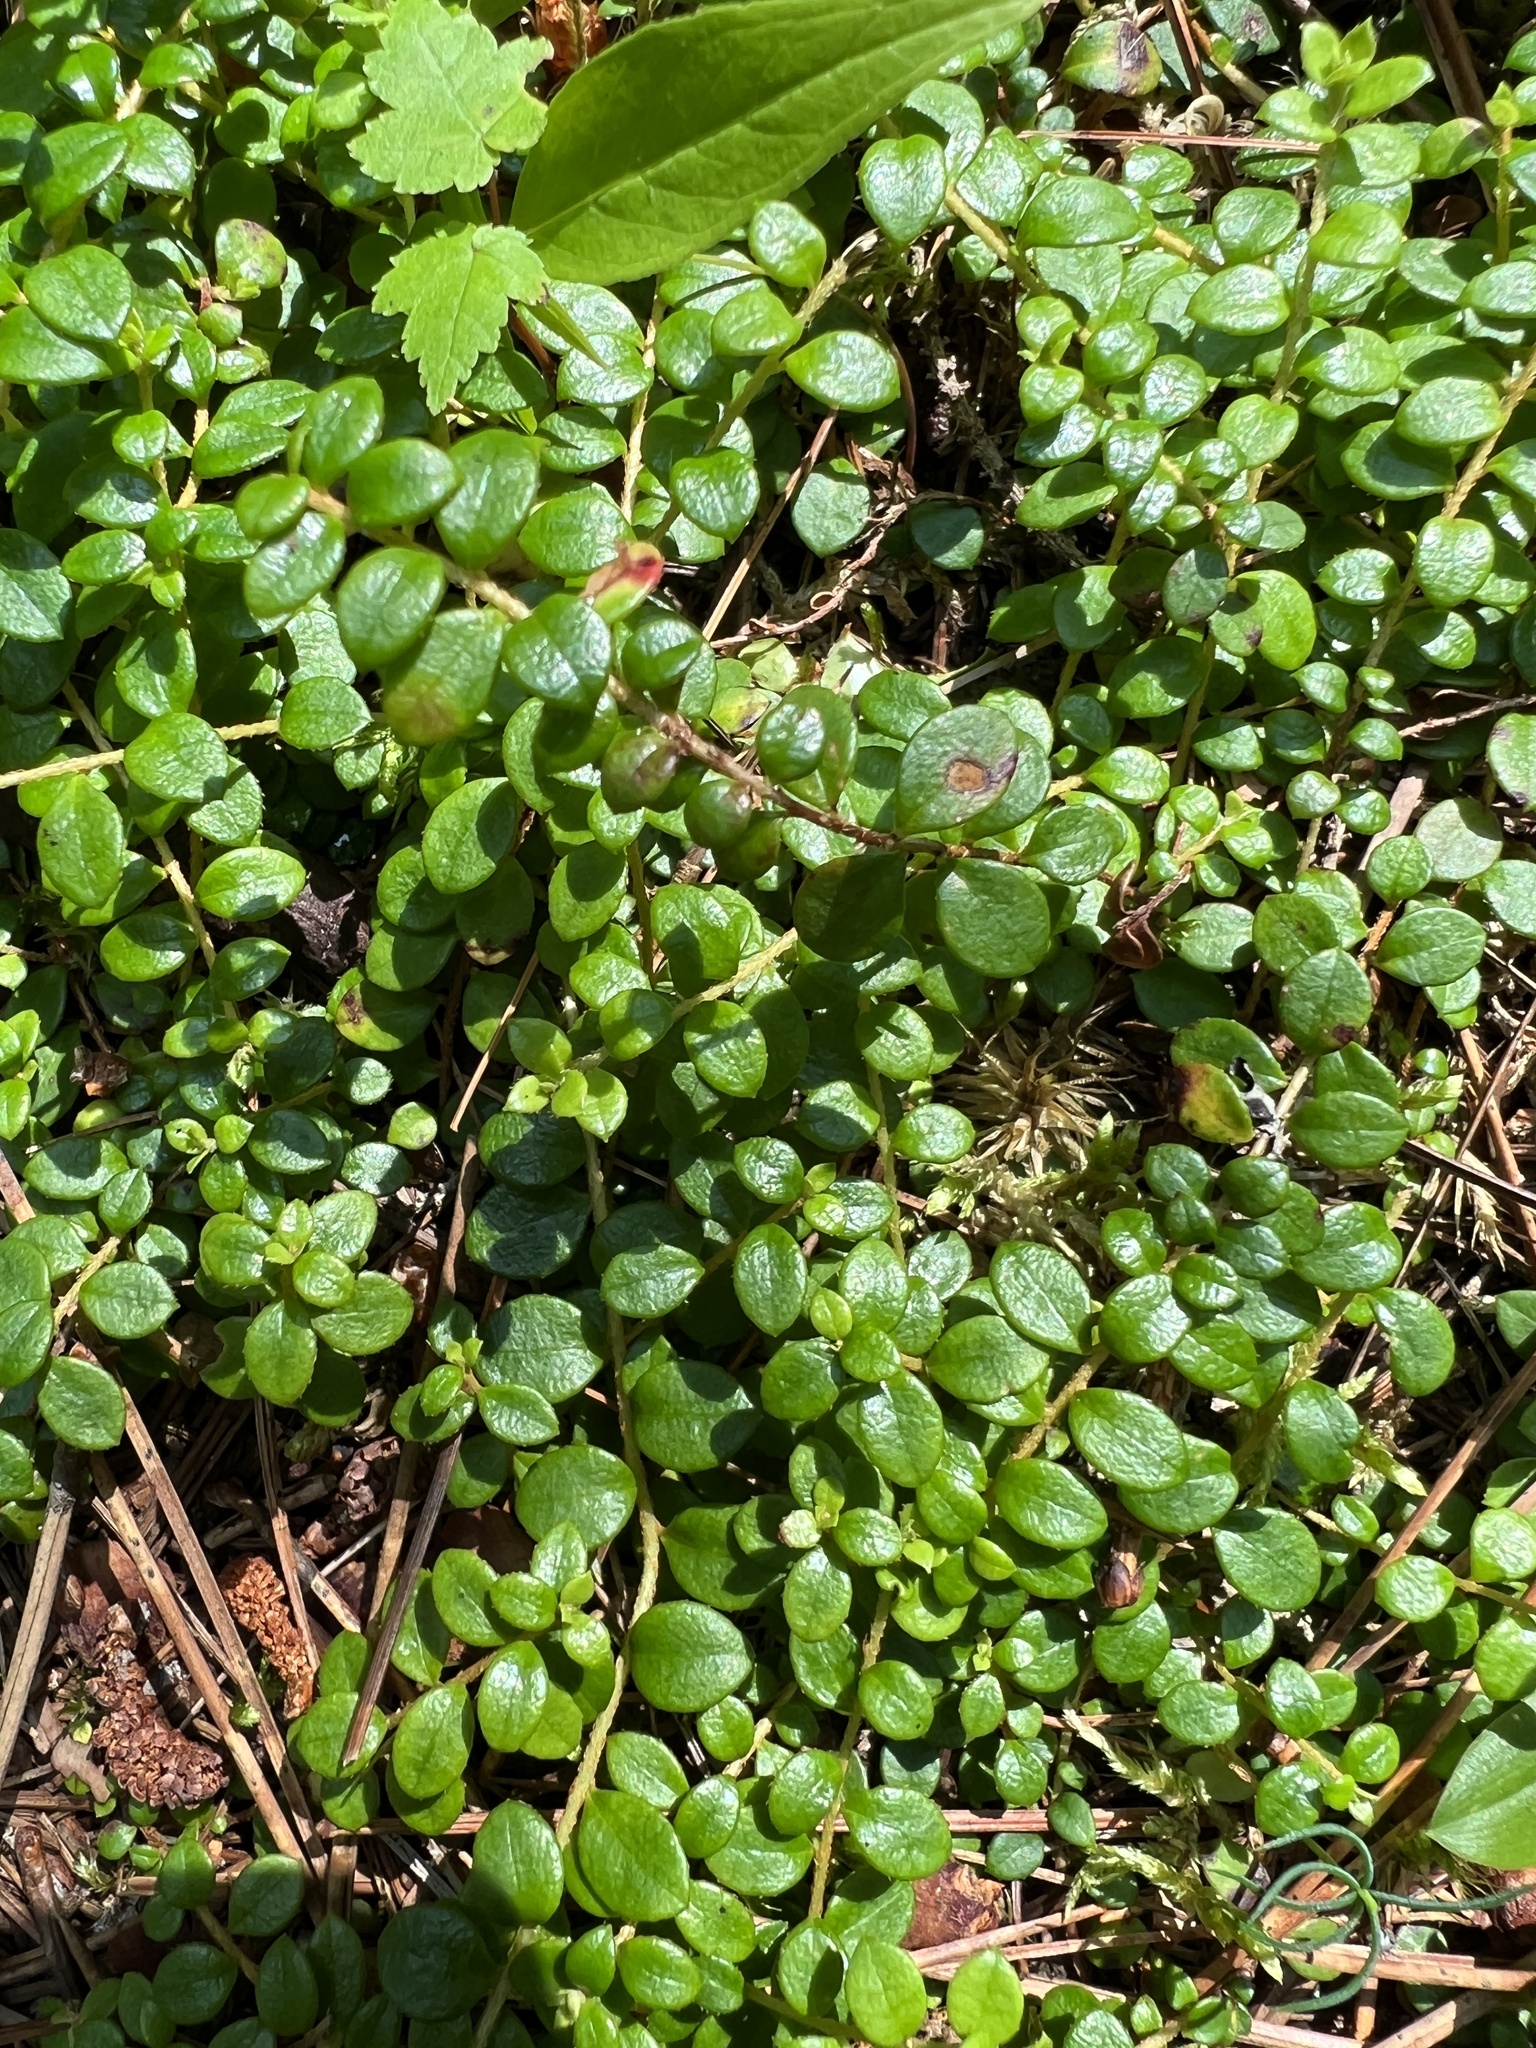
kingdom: Plantae
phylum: Tracheophyta
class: Magnoliopsida
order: Ericales
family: Ericaceae
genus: Gaultheria
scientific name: Gaultheria hispidula
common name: Cancer wintergreen
